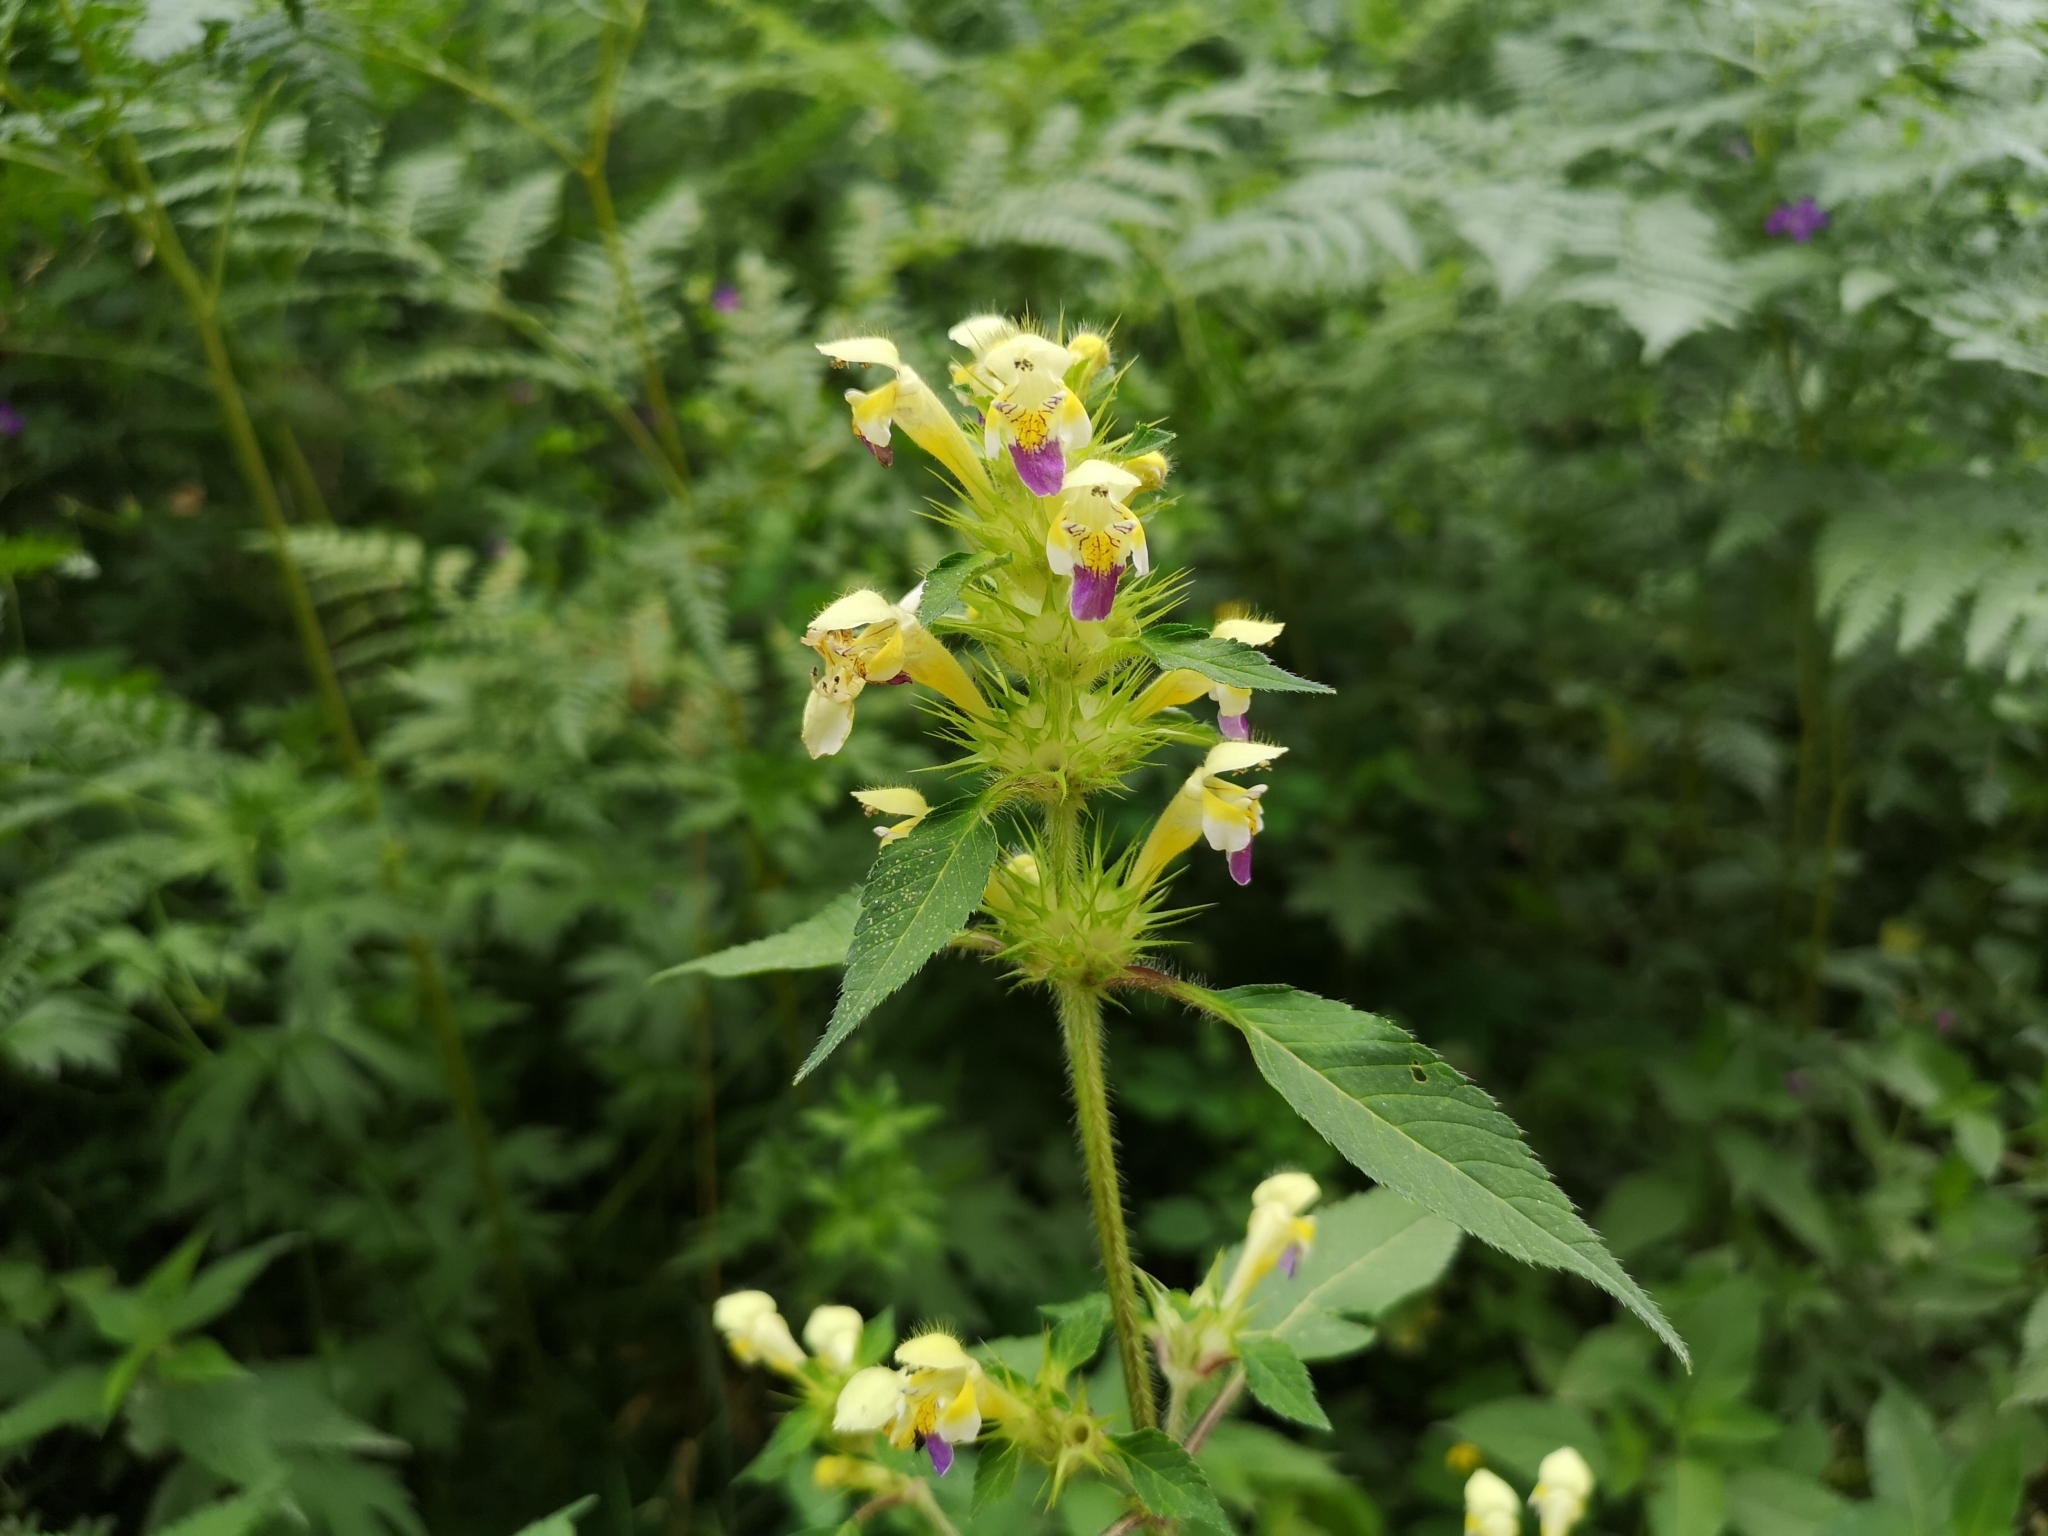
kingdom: Plantae
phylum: Tracheophyta
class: Magnoliopsida
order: Lamiales
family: Lamiaceae
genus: Galeopsis
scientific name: Galeopsis speciosa
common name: Large-flowered hemp-nettle
